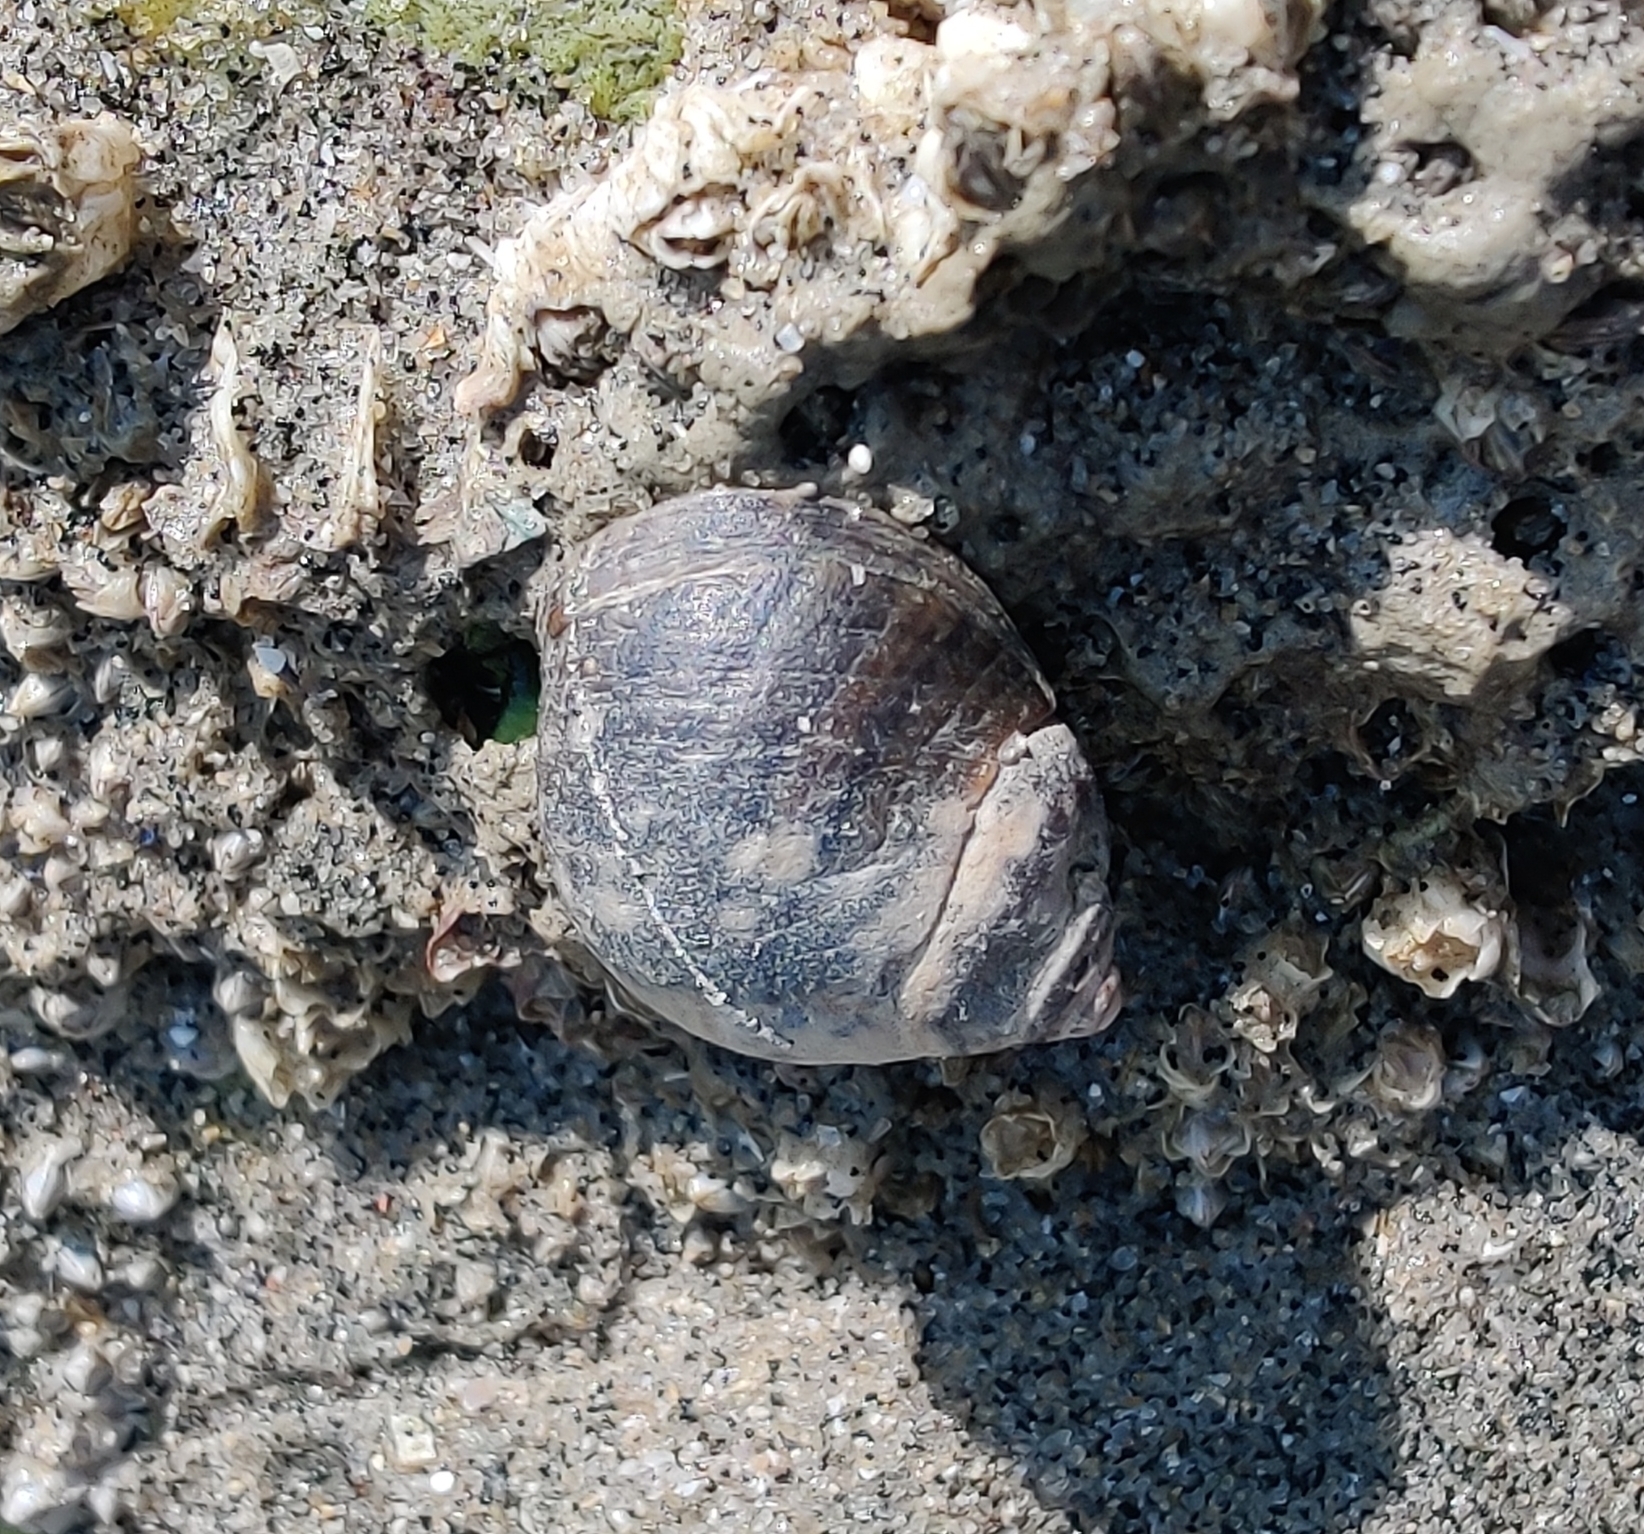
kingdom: Animalia
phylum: Mollusca
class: Gastropoda
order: Littorinimorpha
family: Littorinidae
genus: Littorina
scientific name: Littorina littorea
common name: Common periwinkle
